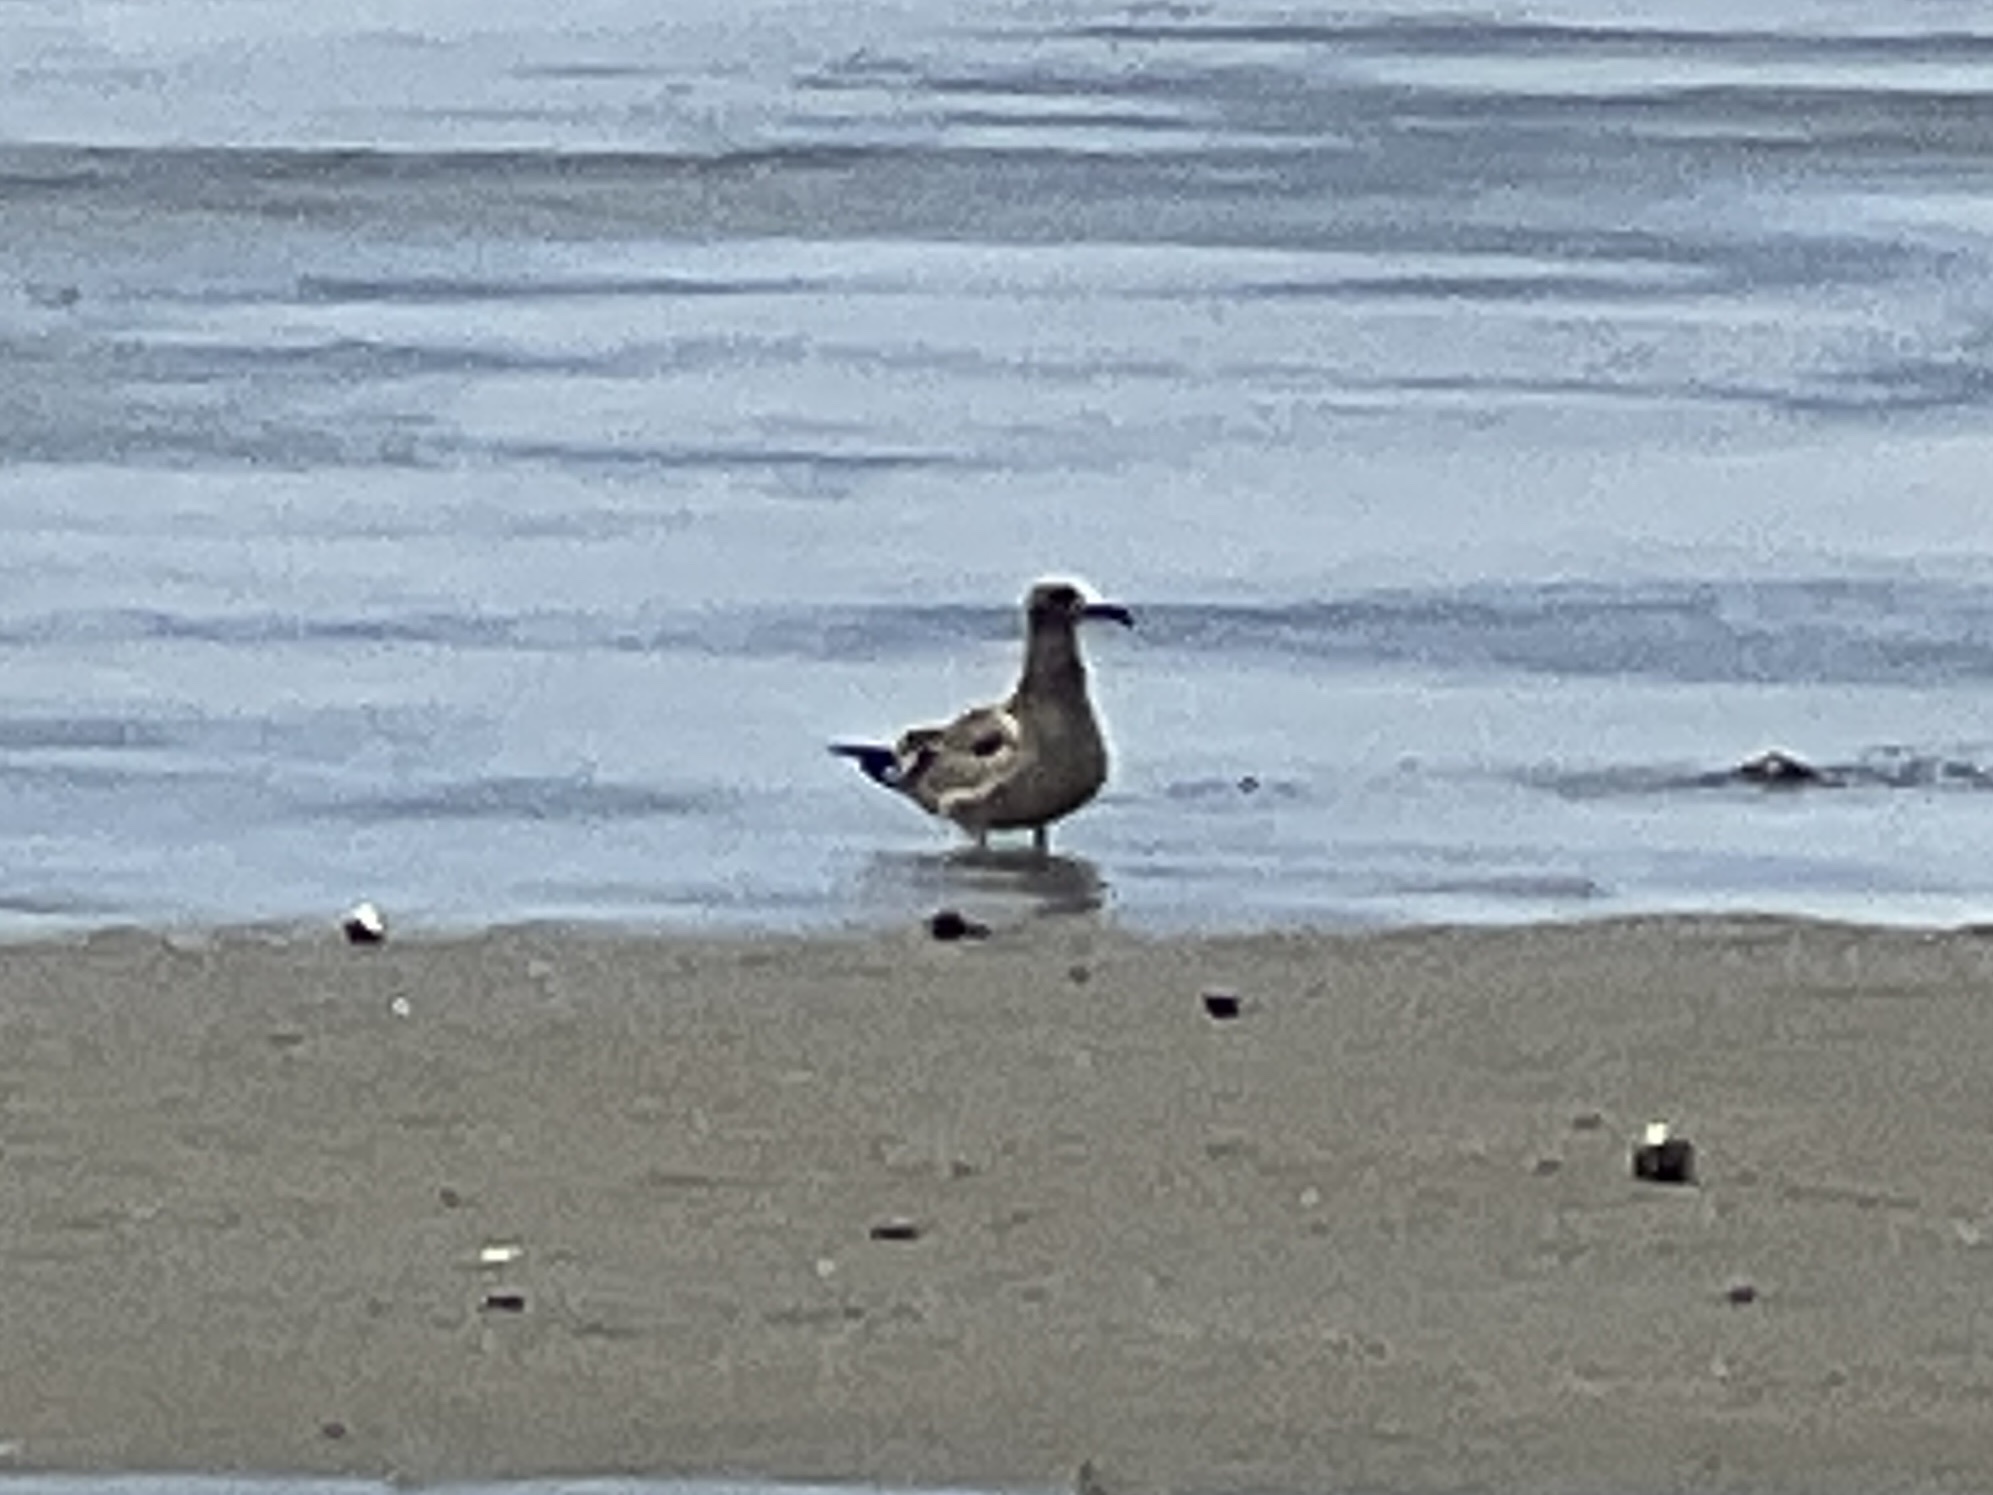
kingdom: Animalia
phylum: Chordata
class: Aves
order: Charadriiformes
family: Laridae
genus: Leucophaeus
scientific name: Leucophaeus atricilla
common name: Laughing gull
